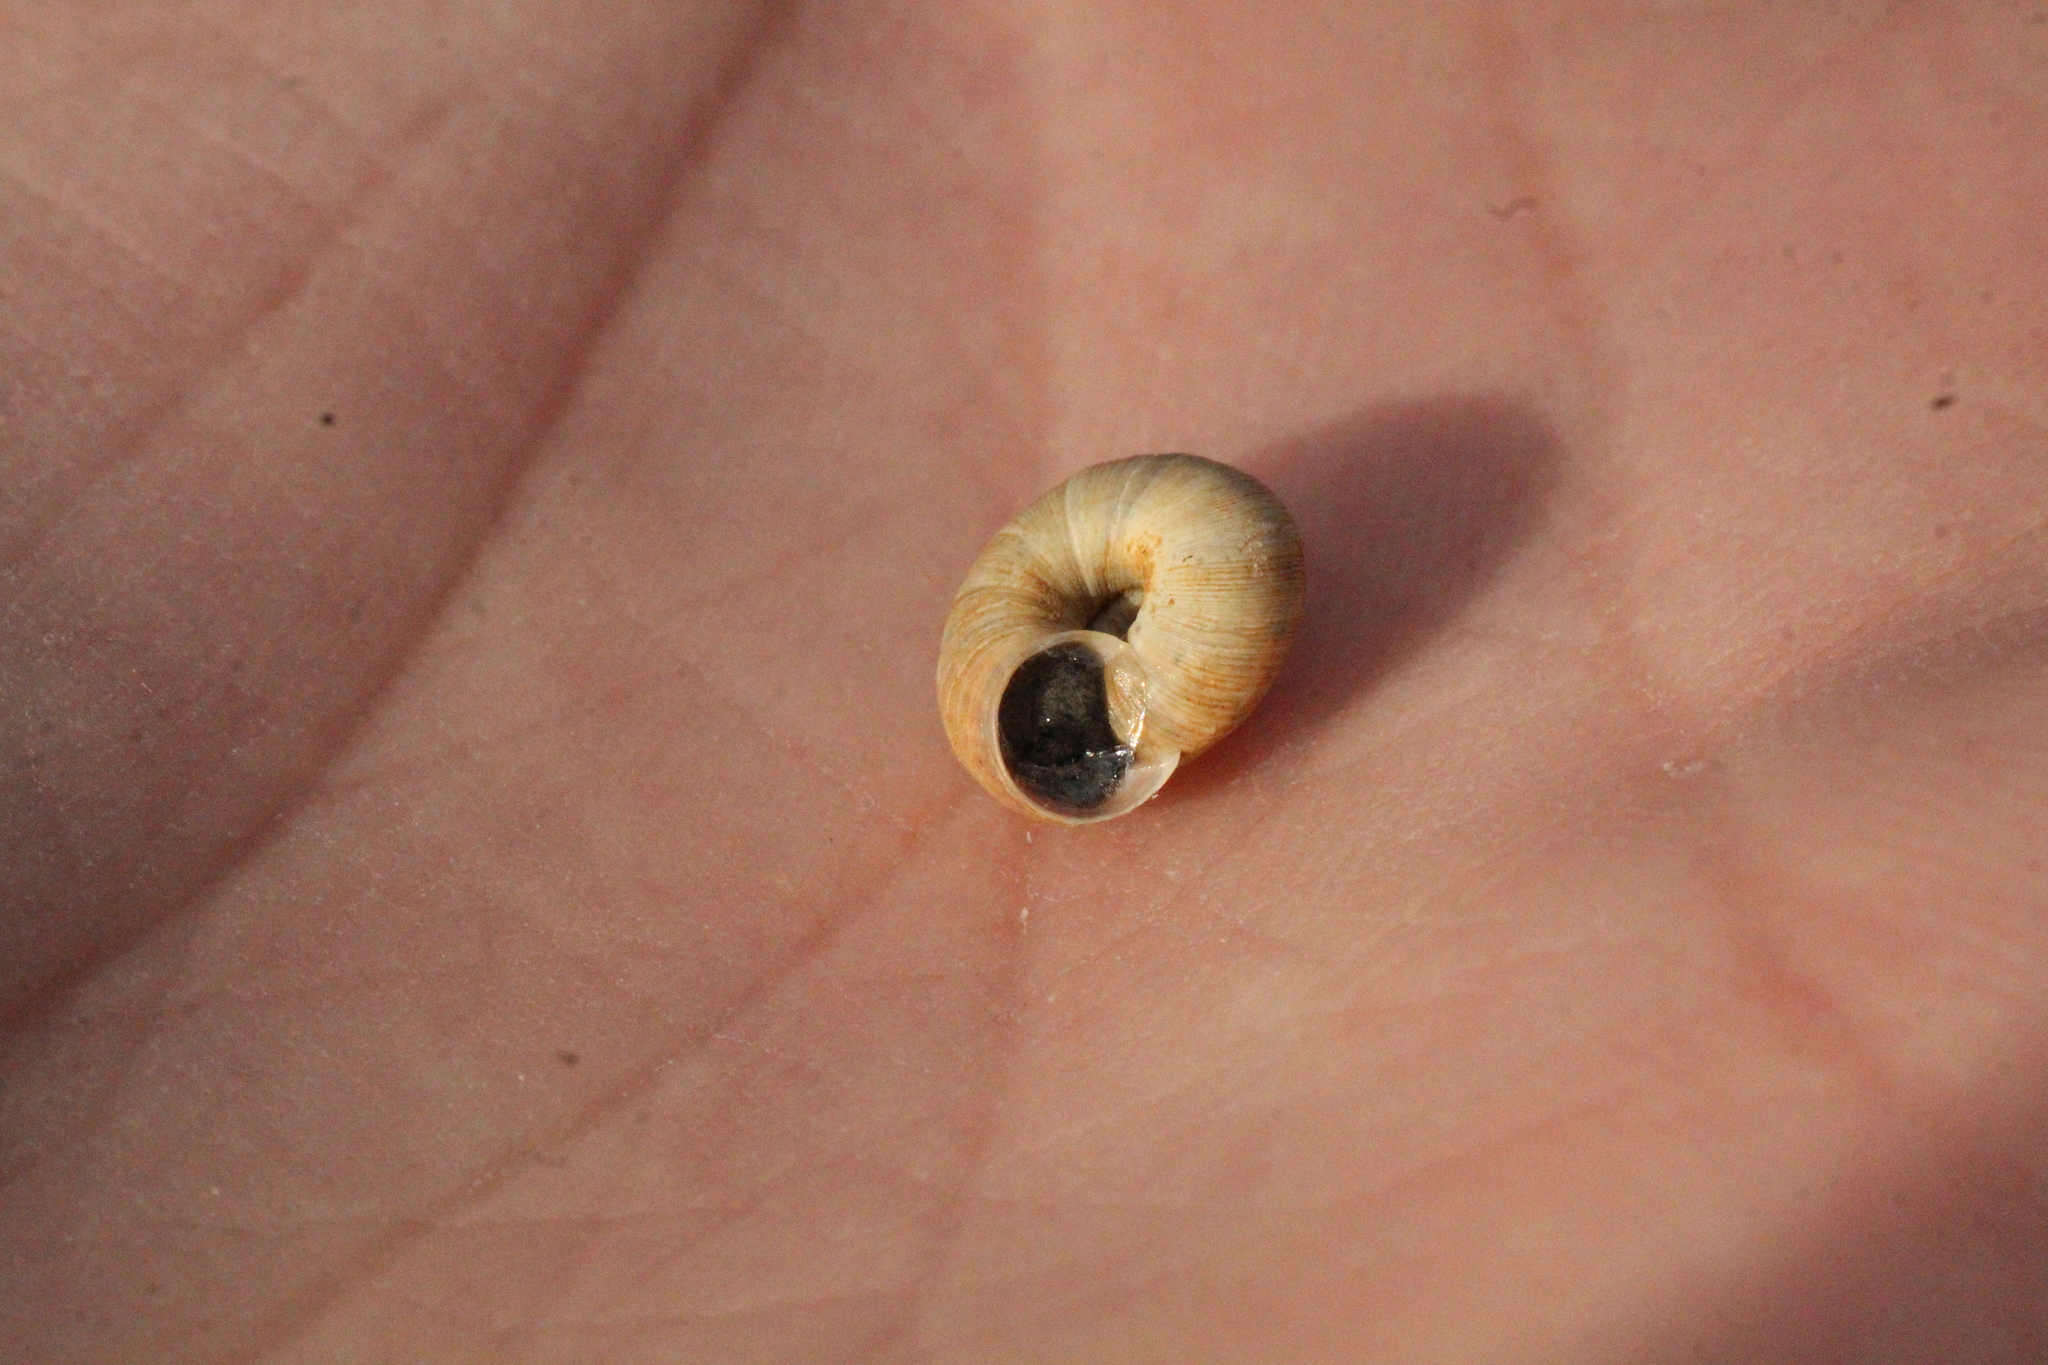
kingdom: Animalia
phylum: Mollusca
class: Gastropoda
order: Stylommatophora
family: Geomitridae
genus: Backeljaia
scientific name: Backeljaia gigaxii
